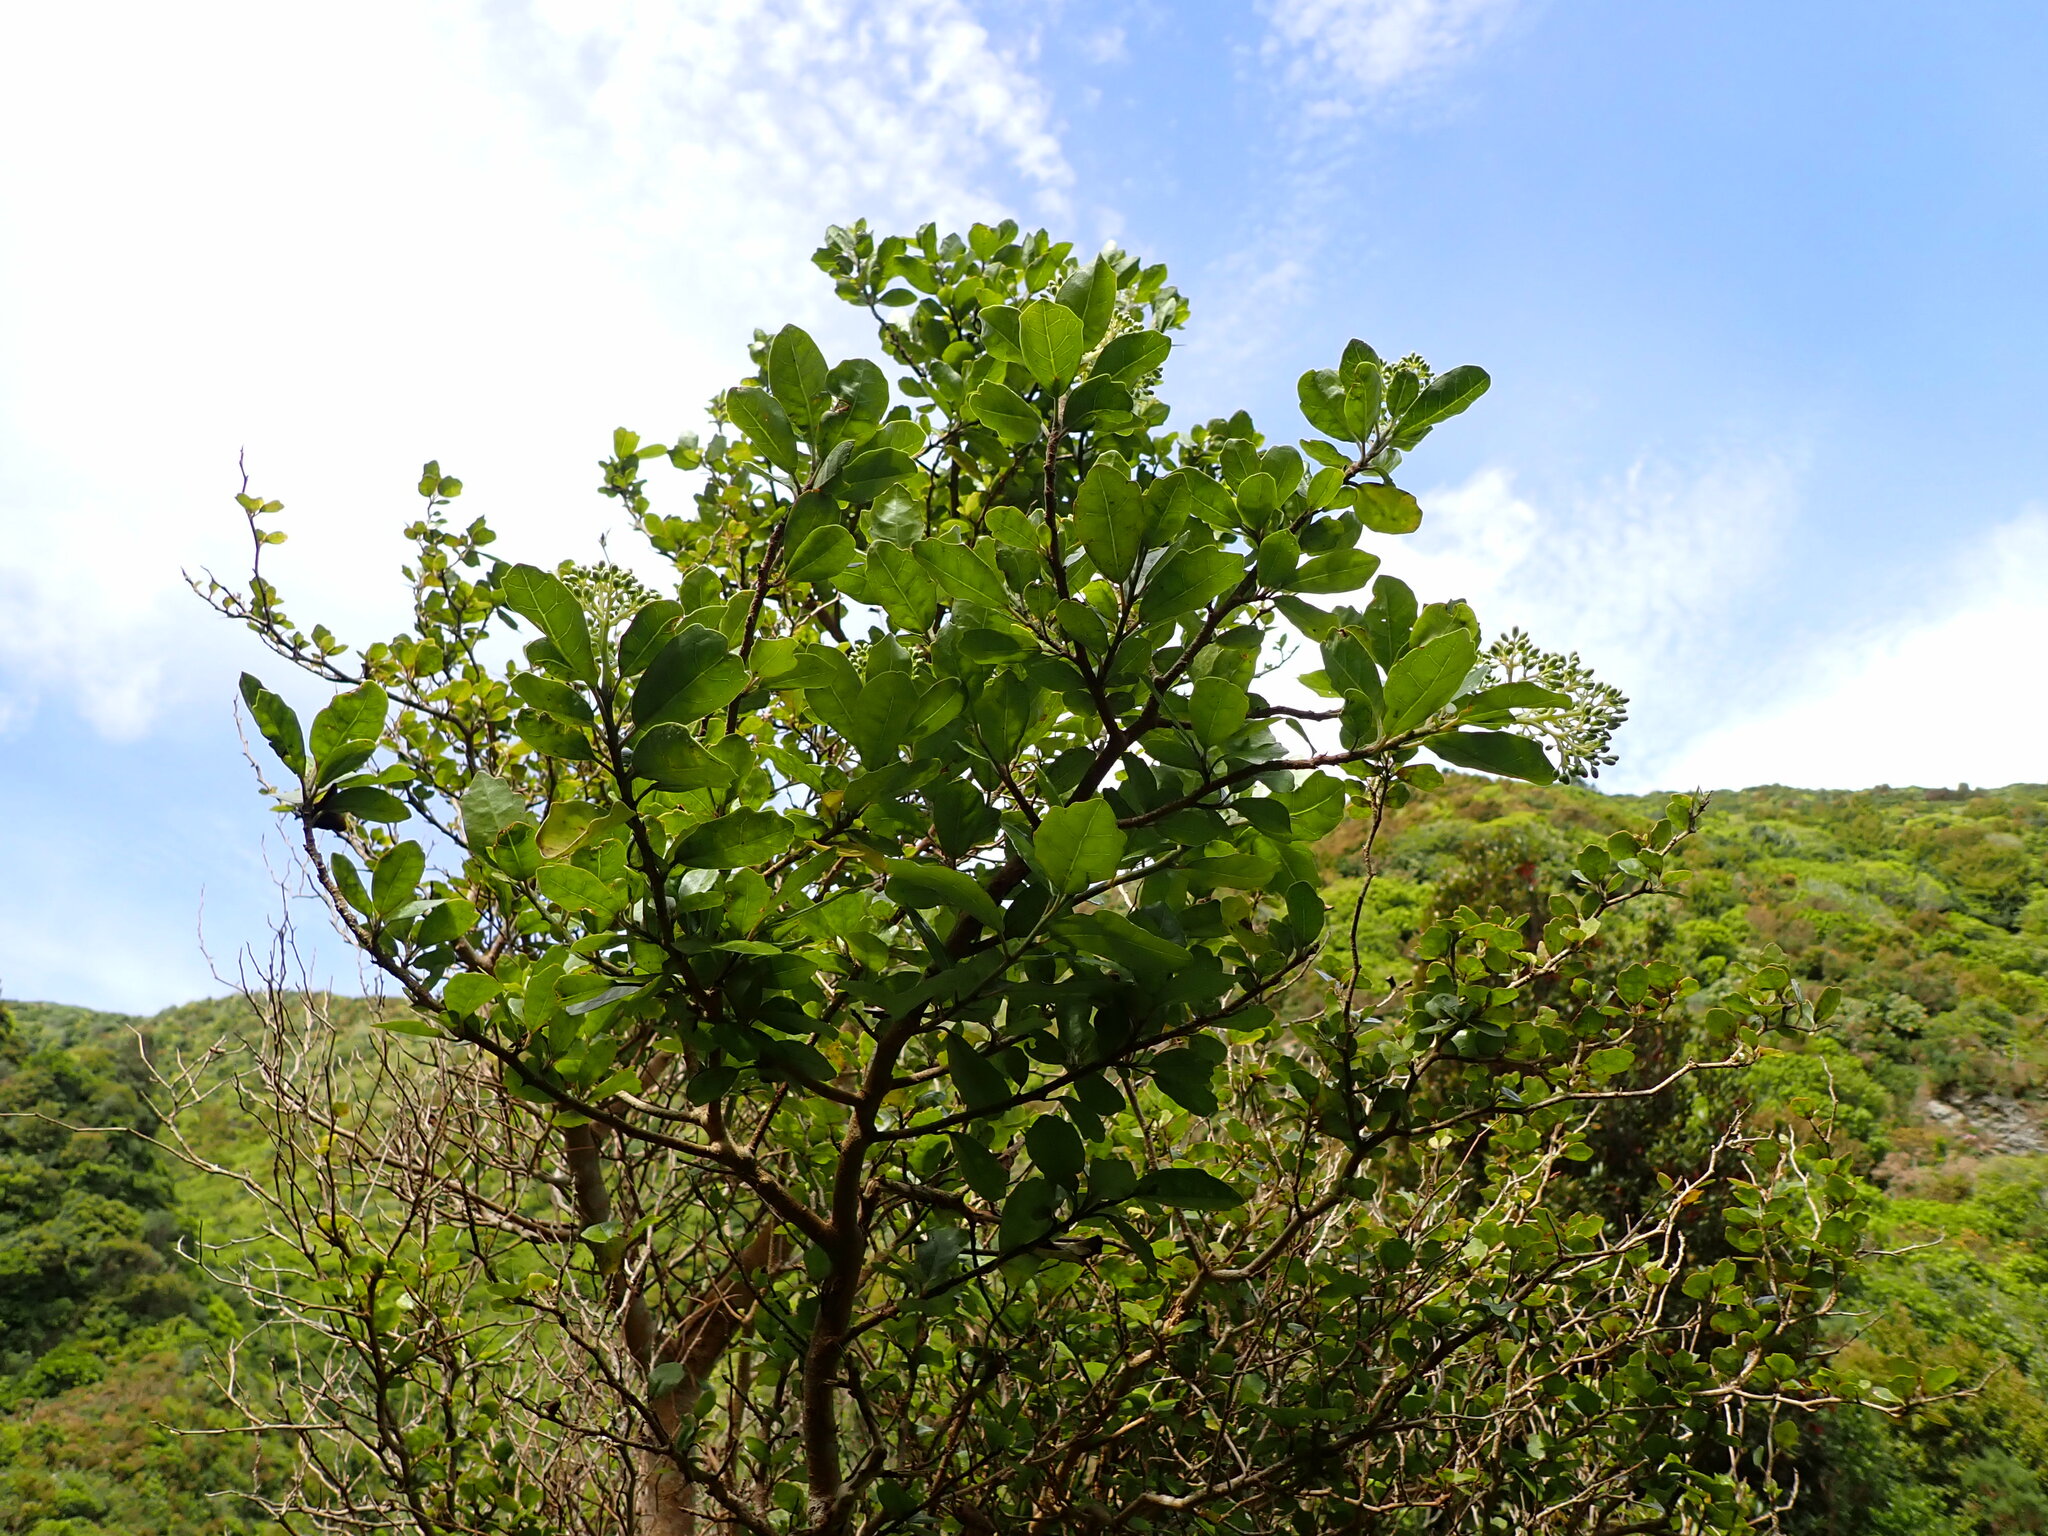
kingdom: Plantae
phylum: Tracheophyta
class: Magnoliopsida
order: Apiales
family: Pennantiaceae
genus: Pennantia
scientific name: Pennantia corymbosa
